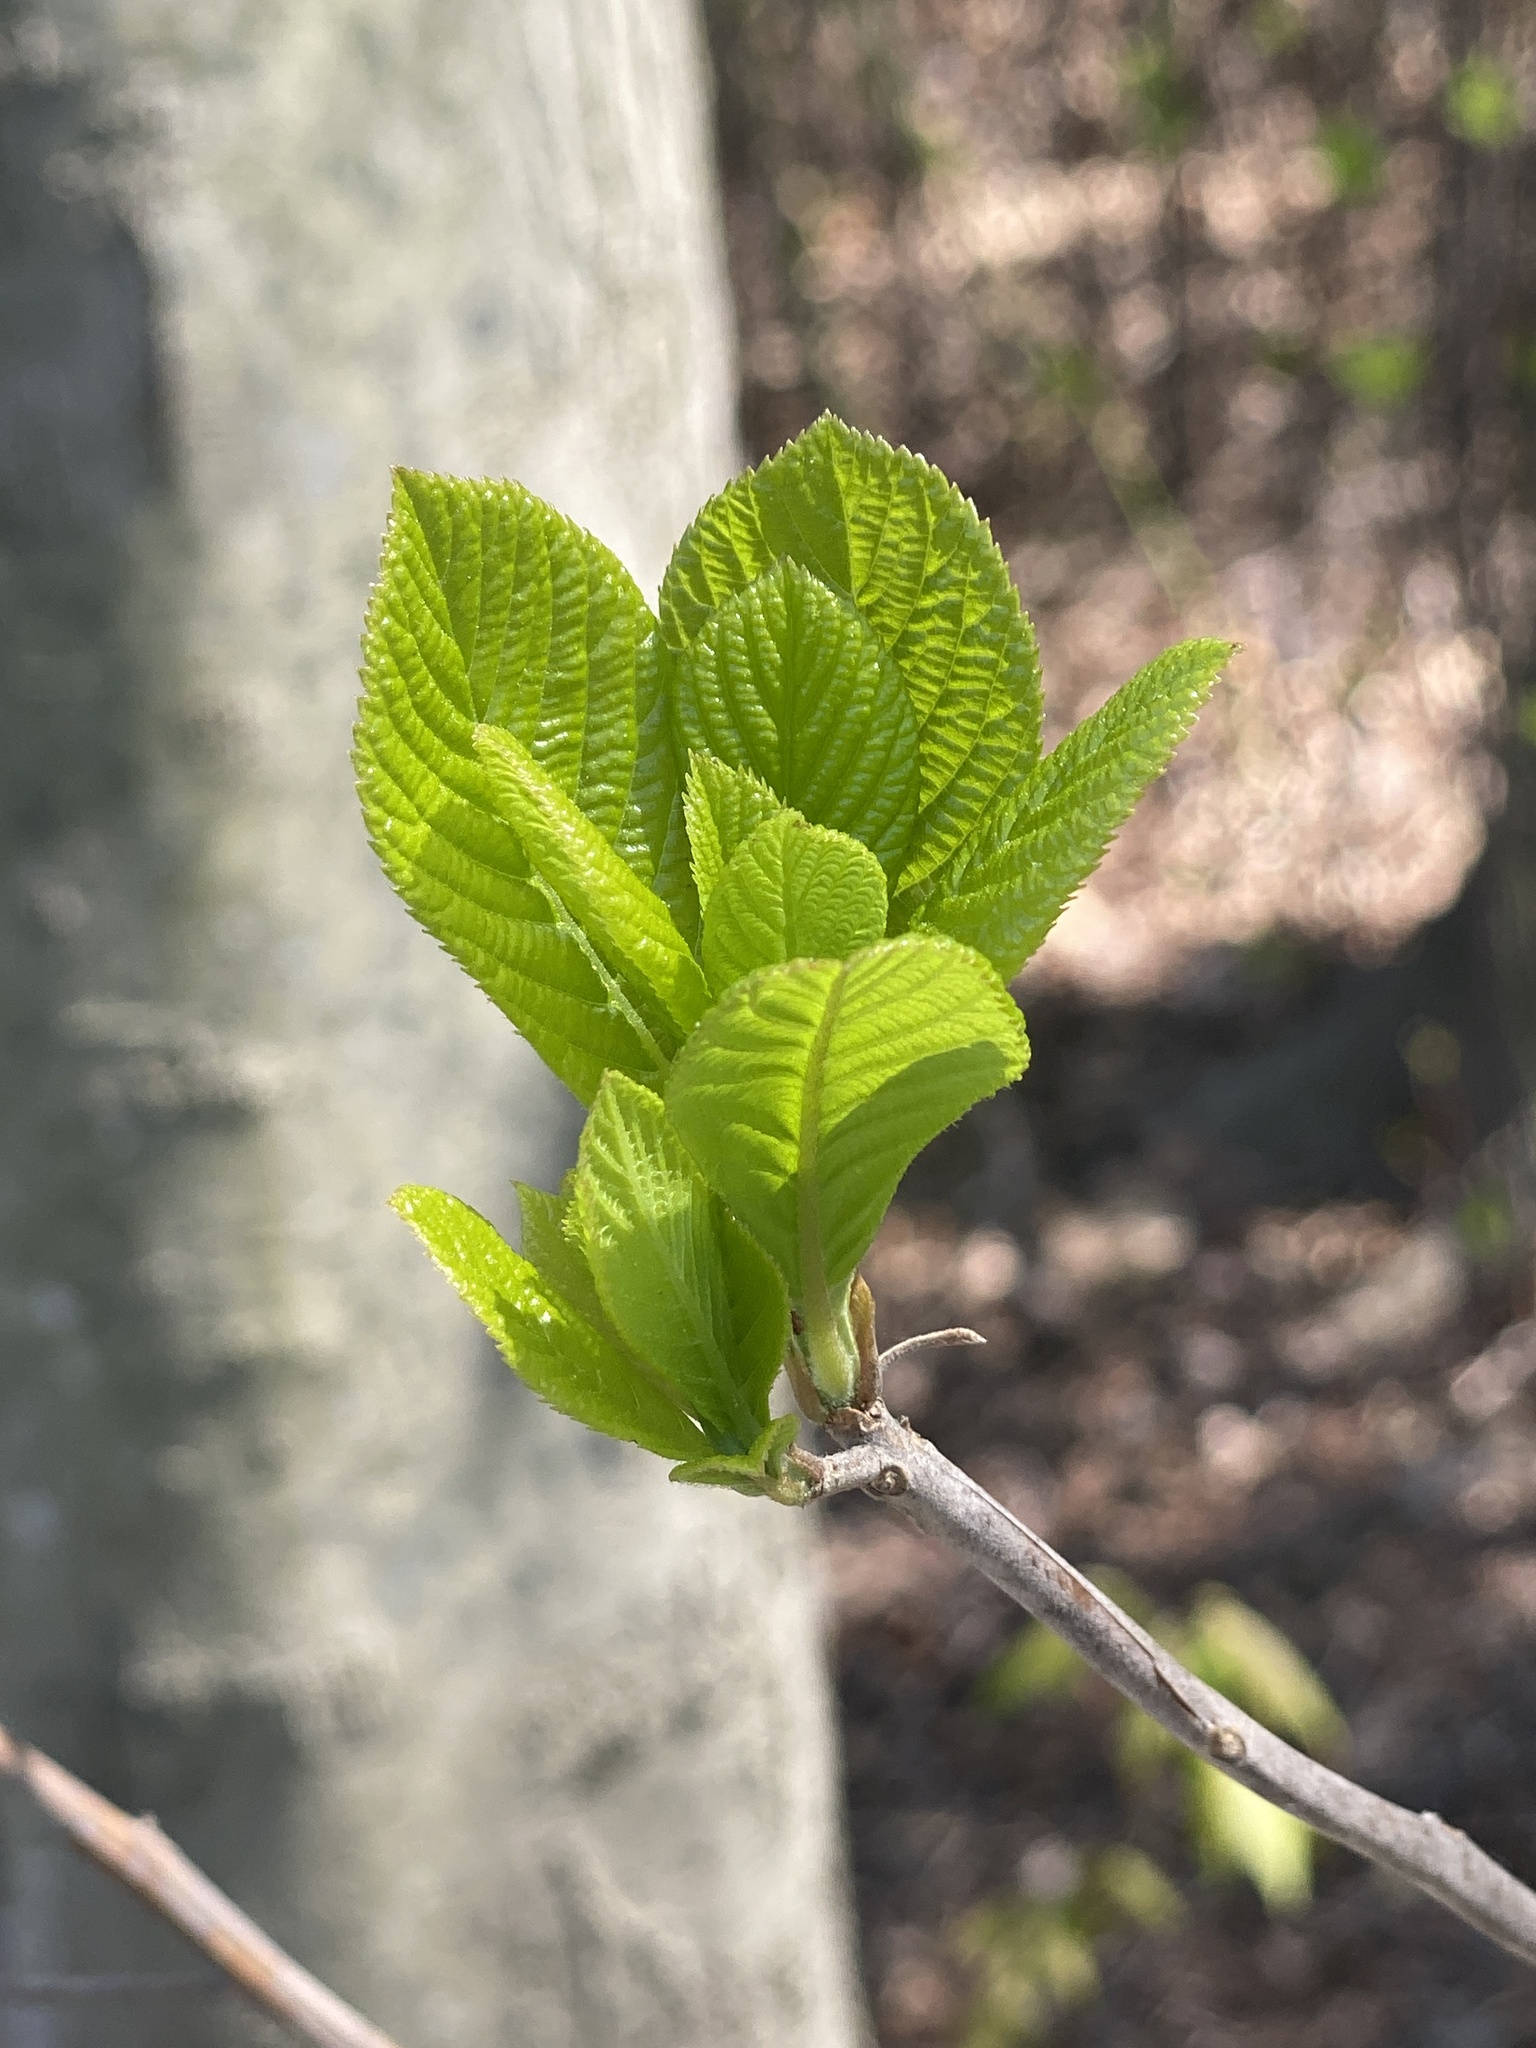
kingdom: Plantae
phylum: Tracheophyta
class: Magnoliopsida
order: Ericales
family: Clethraceae
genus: Clethra
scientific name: Clethra alnifolia
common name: Sweet pepperbush
